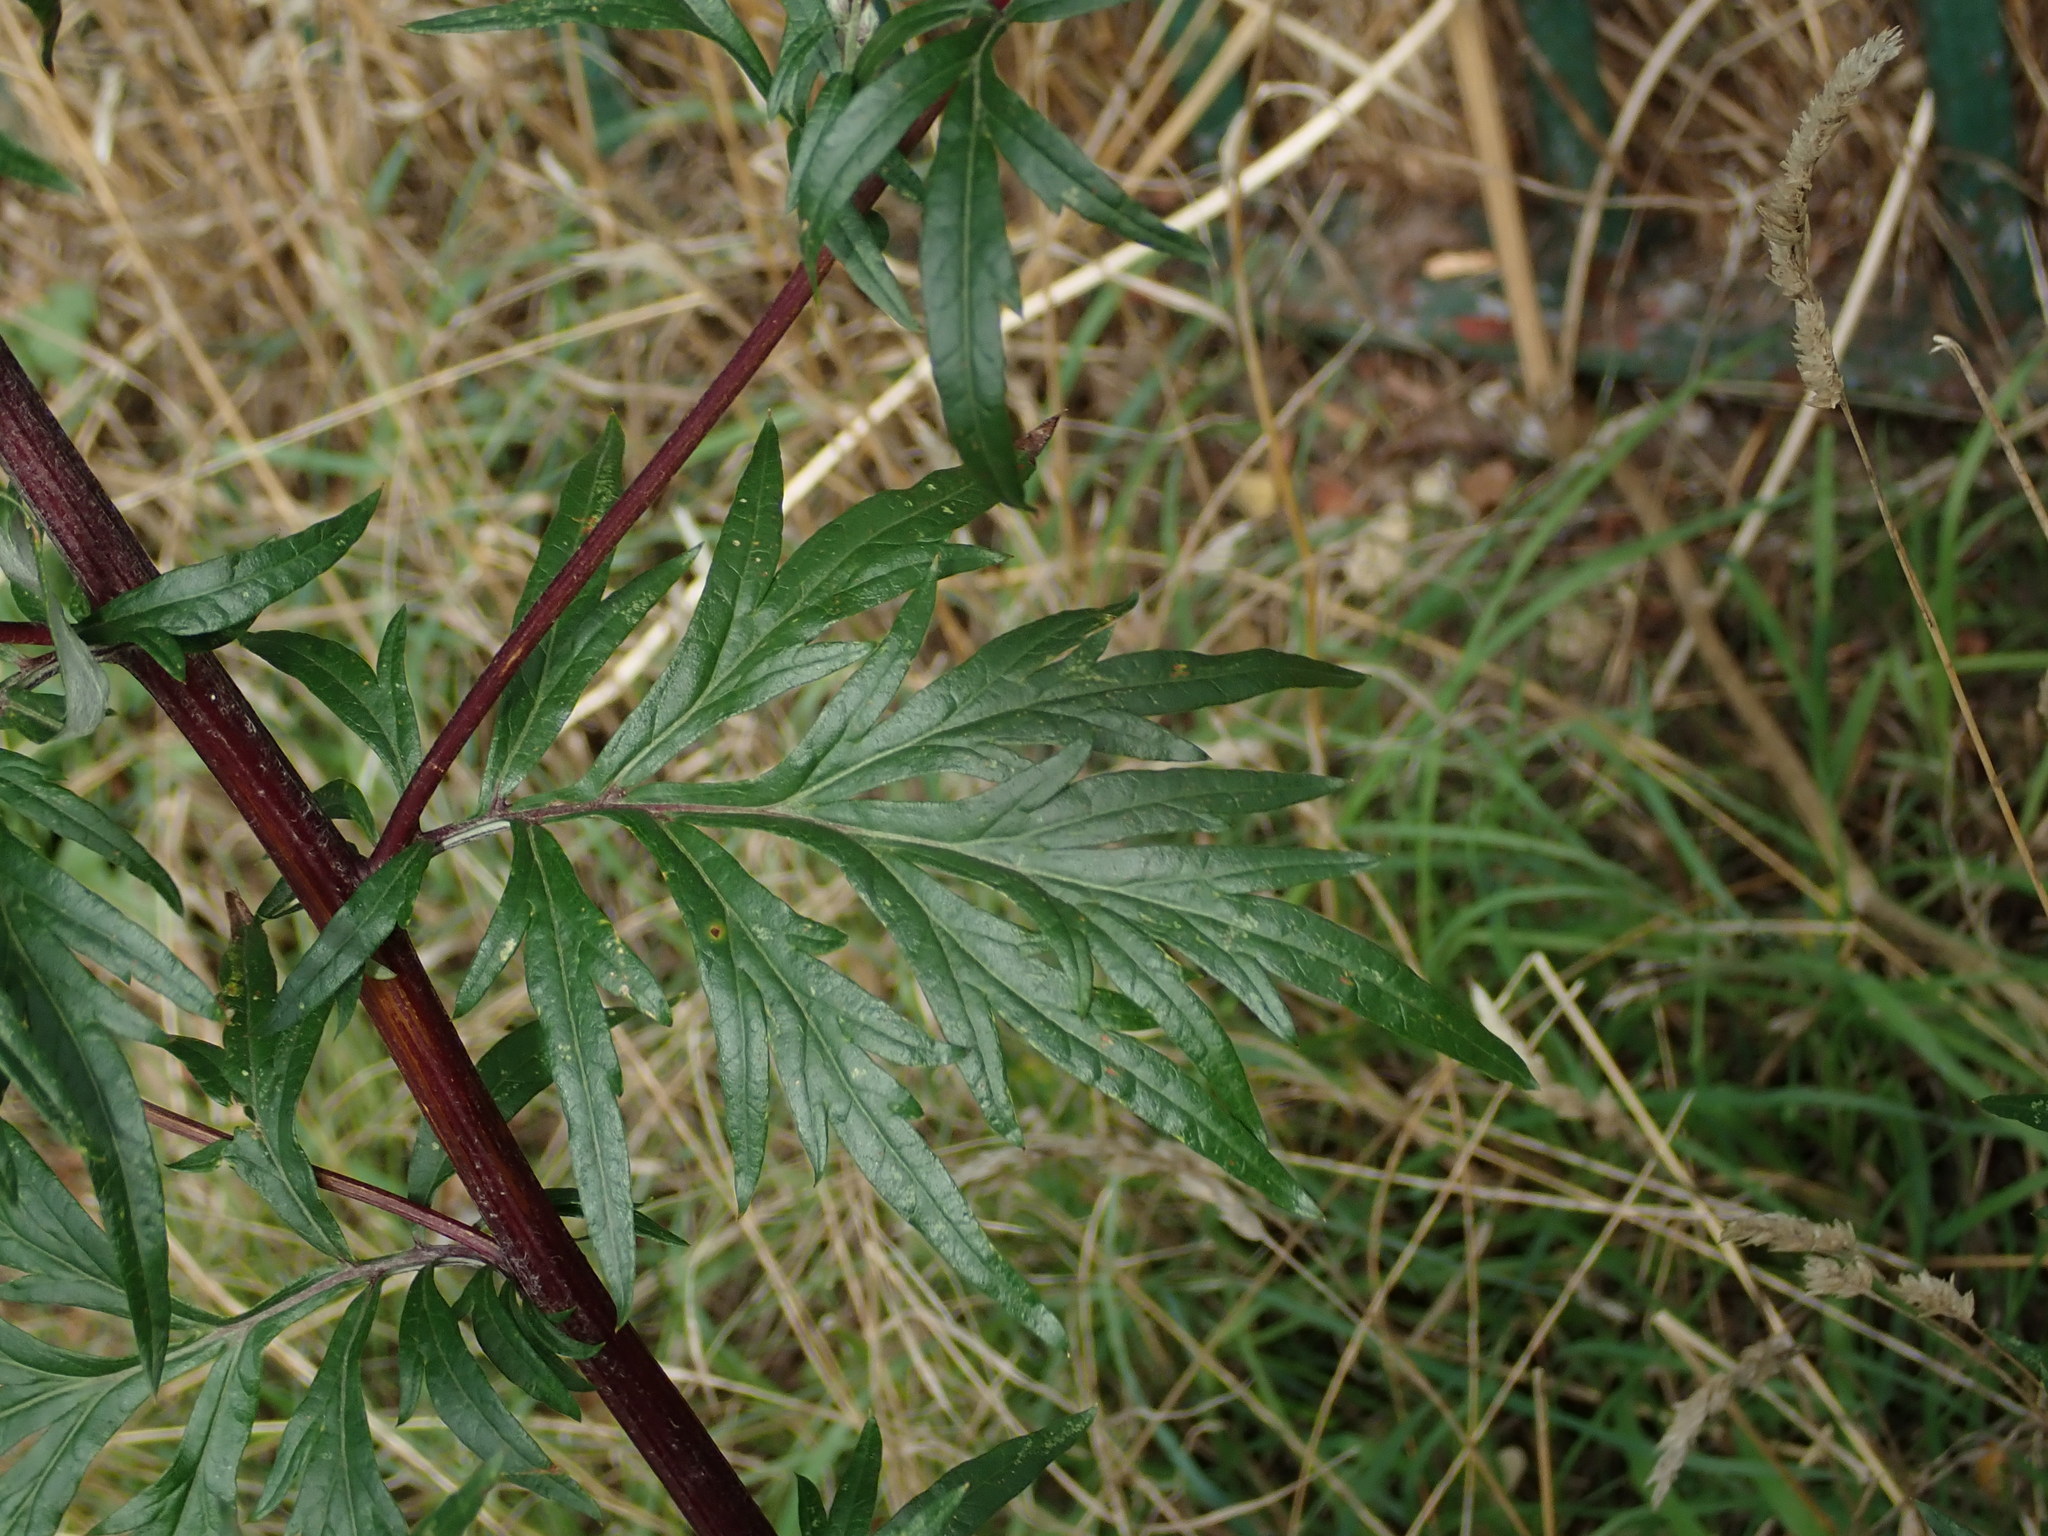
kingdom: Plantae
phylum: Tracheophyta
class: Magnoliopsida
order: Asterales
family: Asteraceae
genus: Artemisia
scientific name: Artemisia vulgaris
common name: Mugwort
